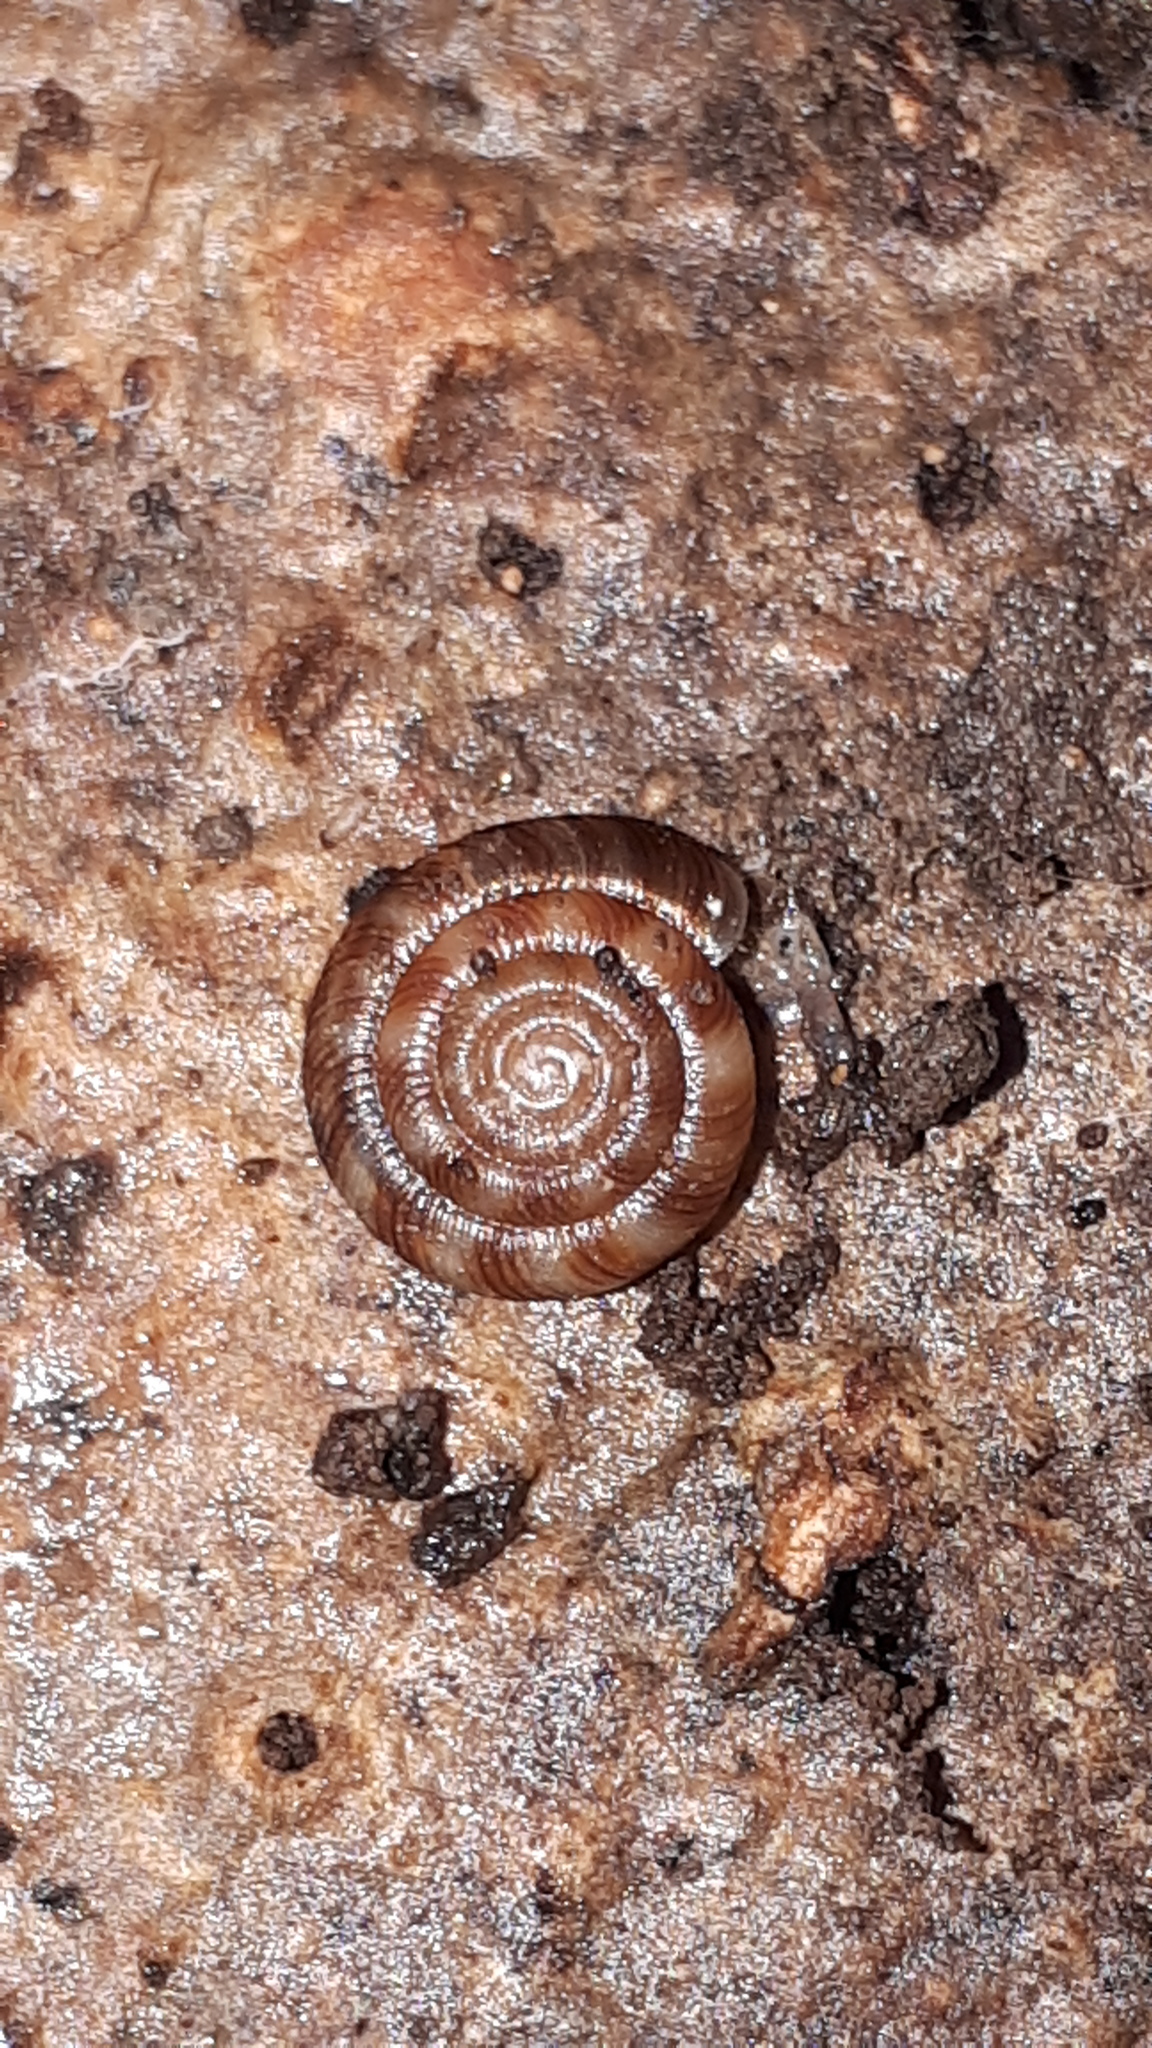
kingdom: Animalia
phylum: Mollusca
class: Gastropoda
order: Stylommatophora
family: Discidae
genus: Discus
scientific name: Discus rotundatus
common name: Rounded snail
